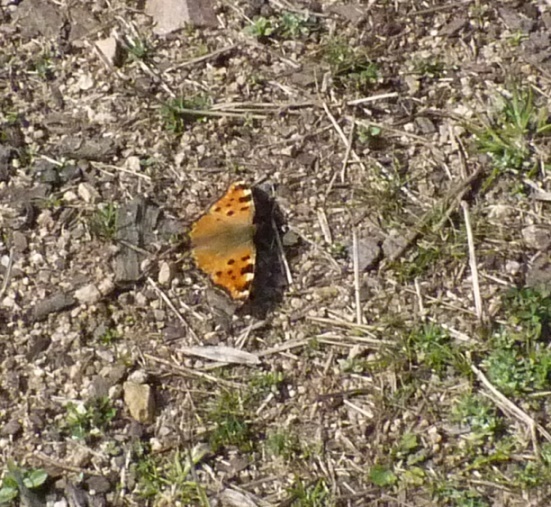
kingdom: Animalia
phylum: Arthropoda
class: Insecta
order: Lepidoptera
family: Nymphalidae
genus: Nymphalis
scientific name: Nymphalis polychloros
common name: Large tortoiseshell
